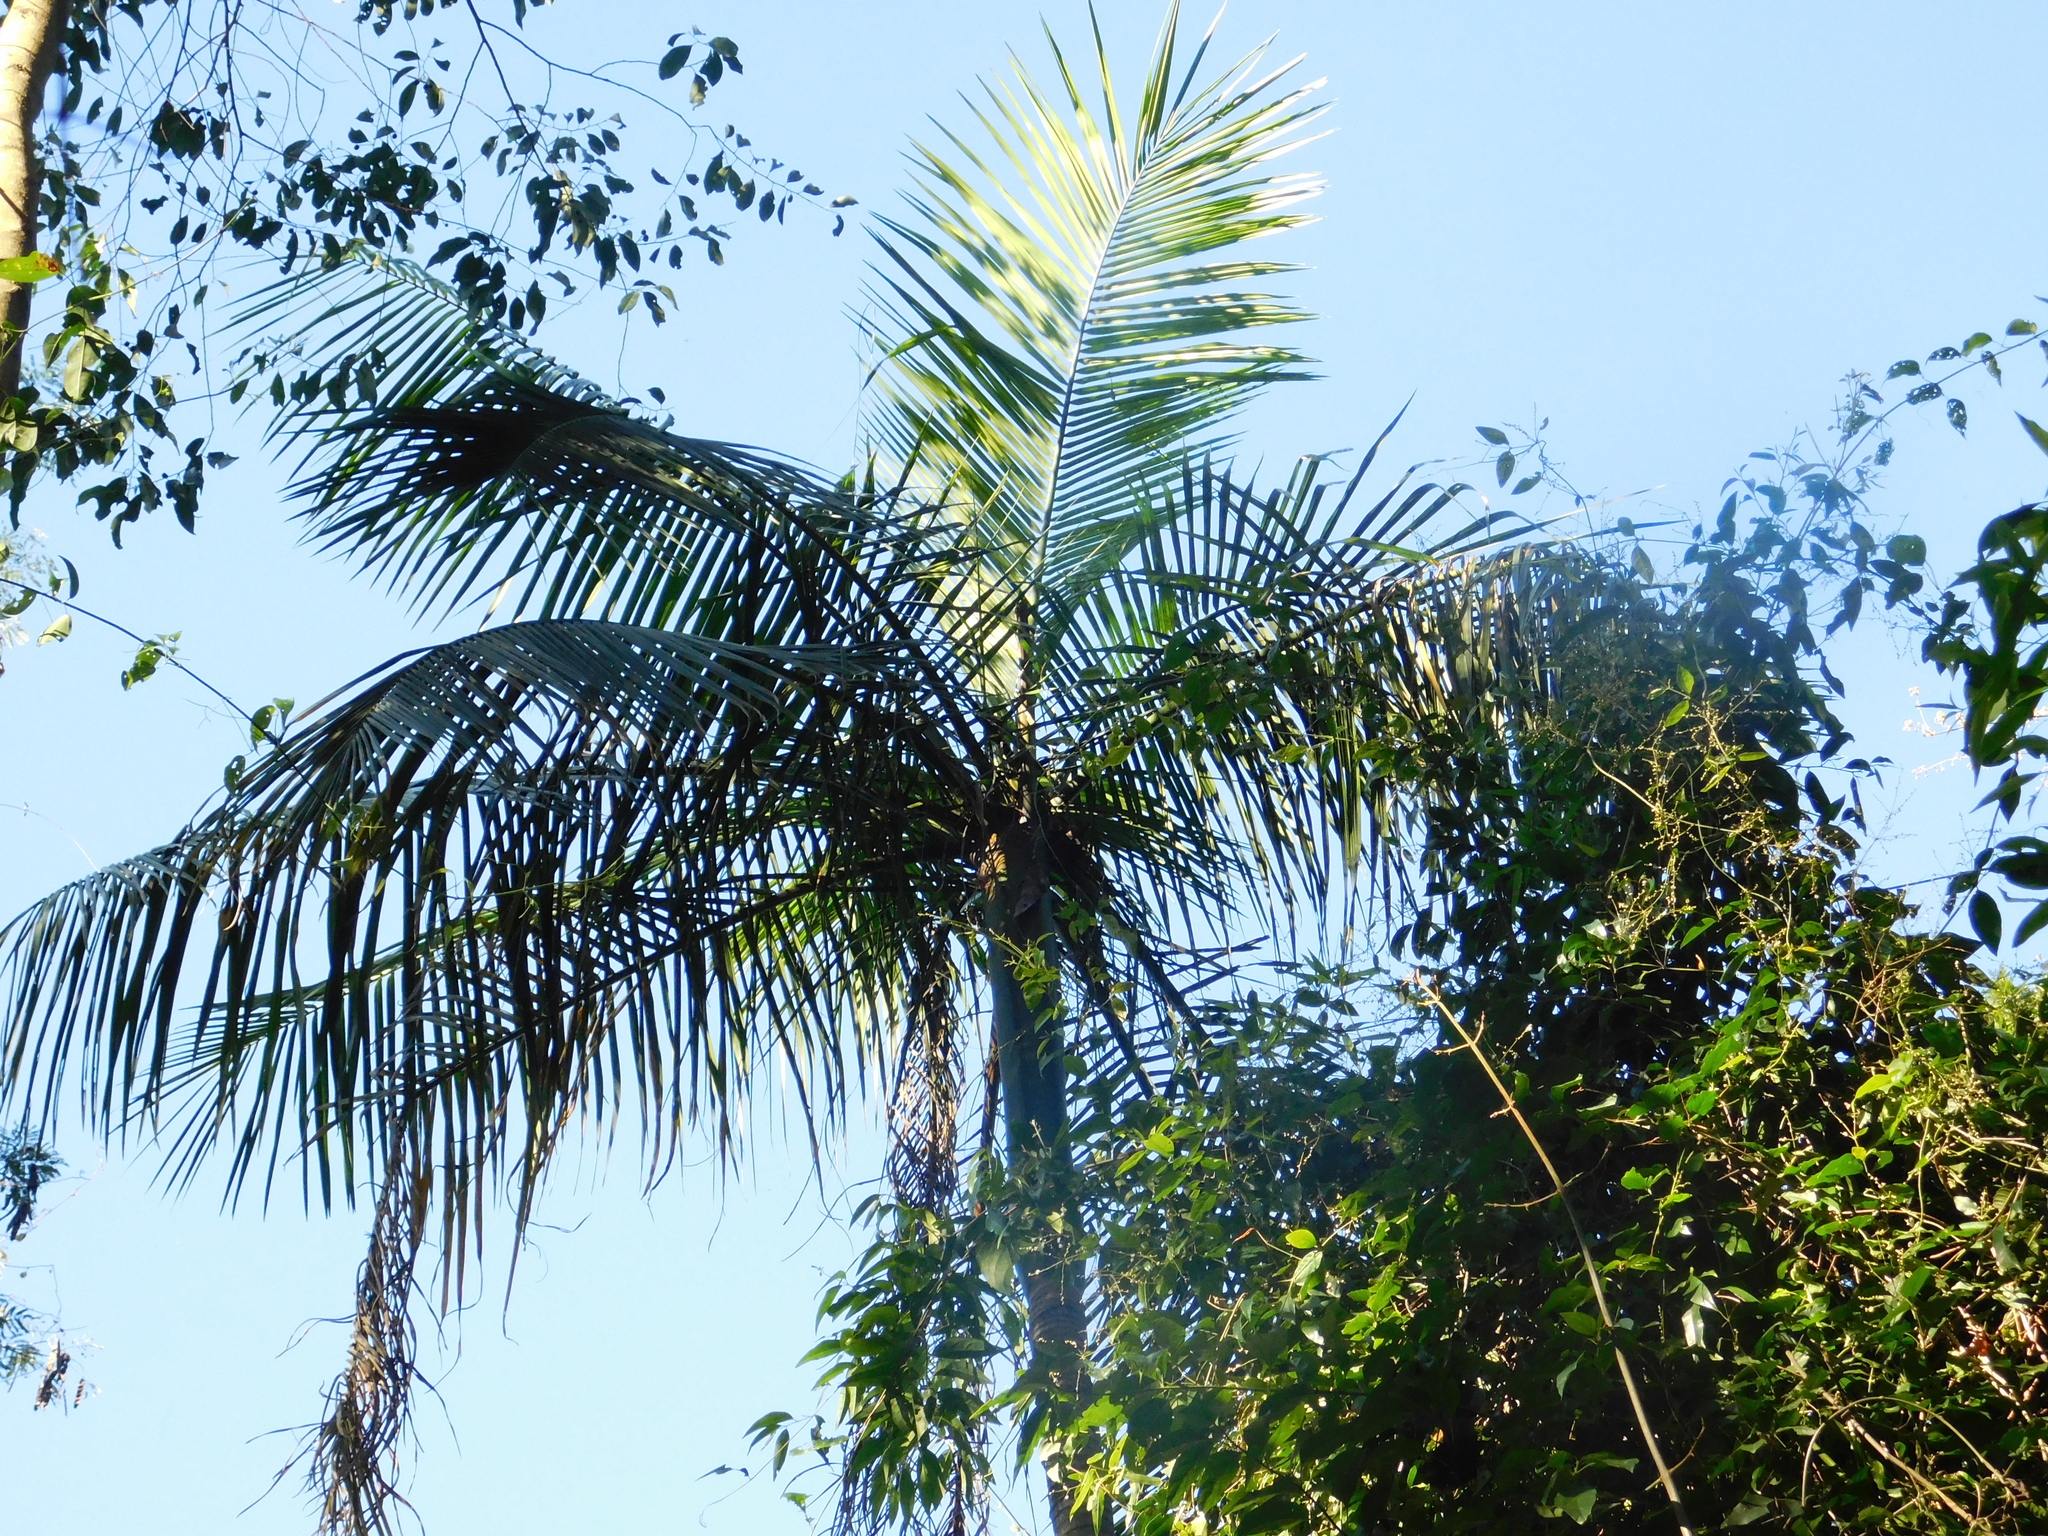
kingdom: Plantae
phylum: Tracheophyta
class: Liliopsida
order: Arecales
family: Arecaceae
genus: Euterpe
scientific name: Euterpe edulis
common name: Assai palm
